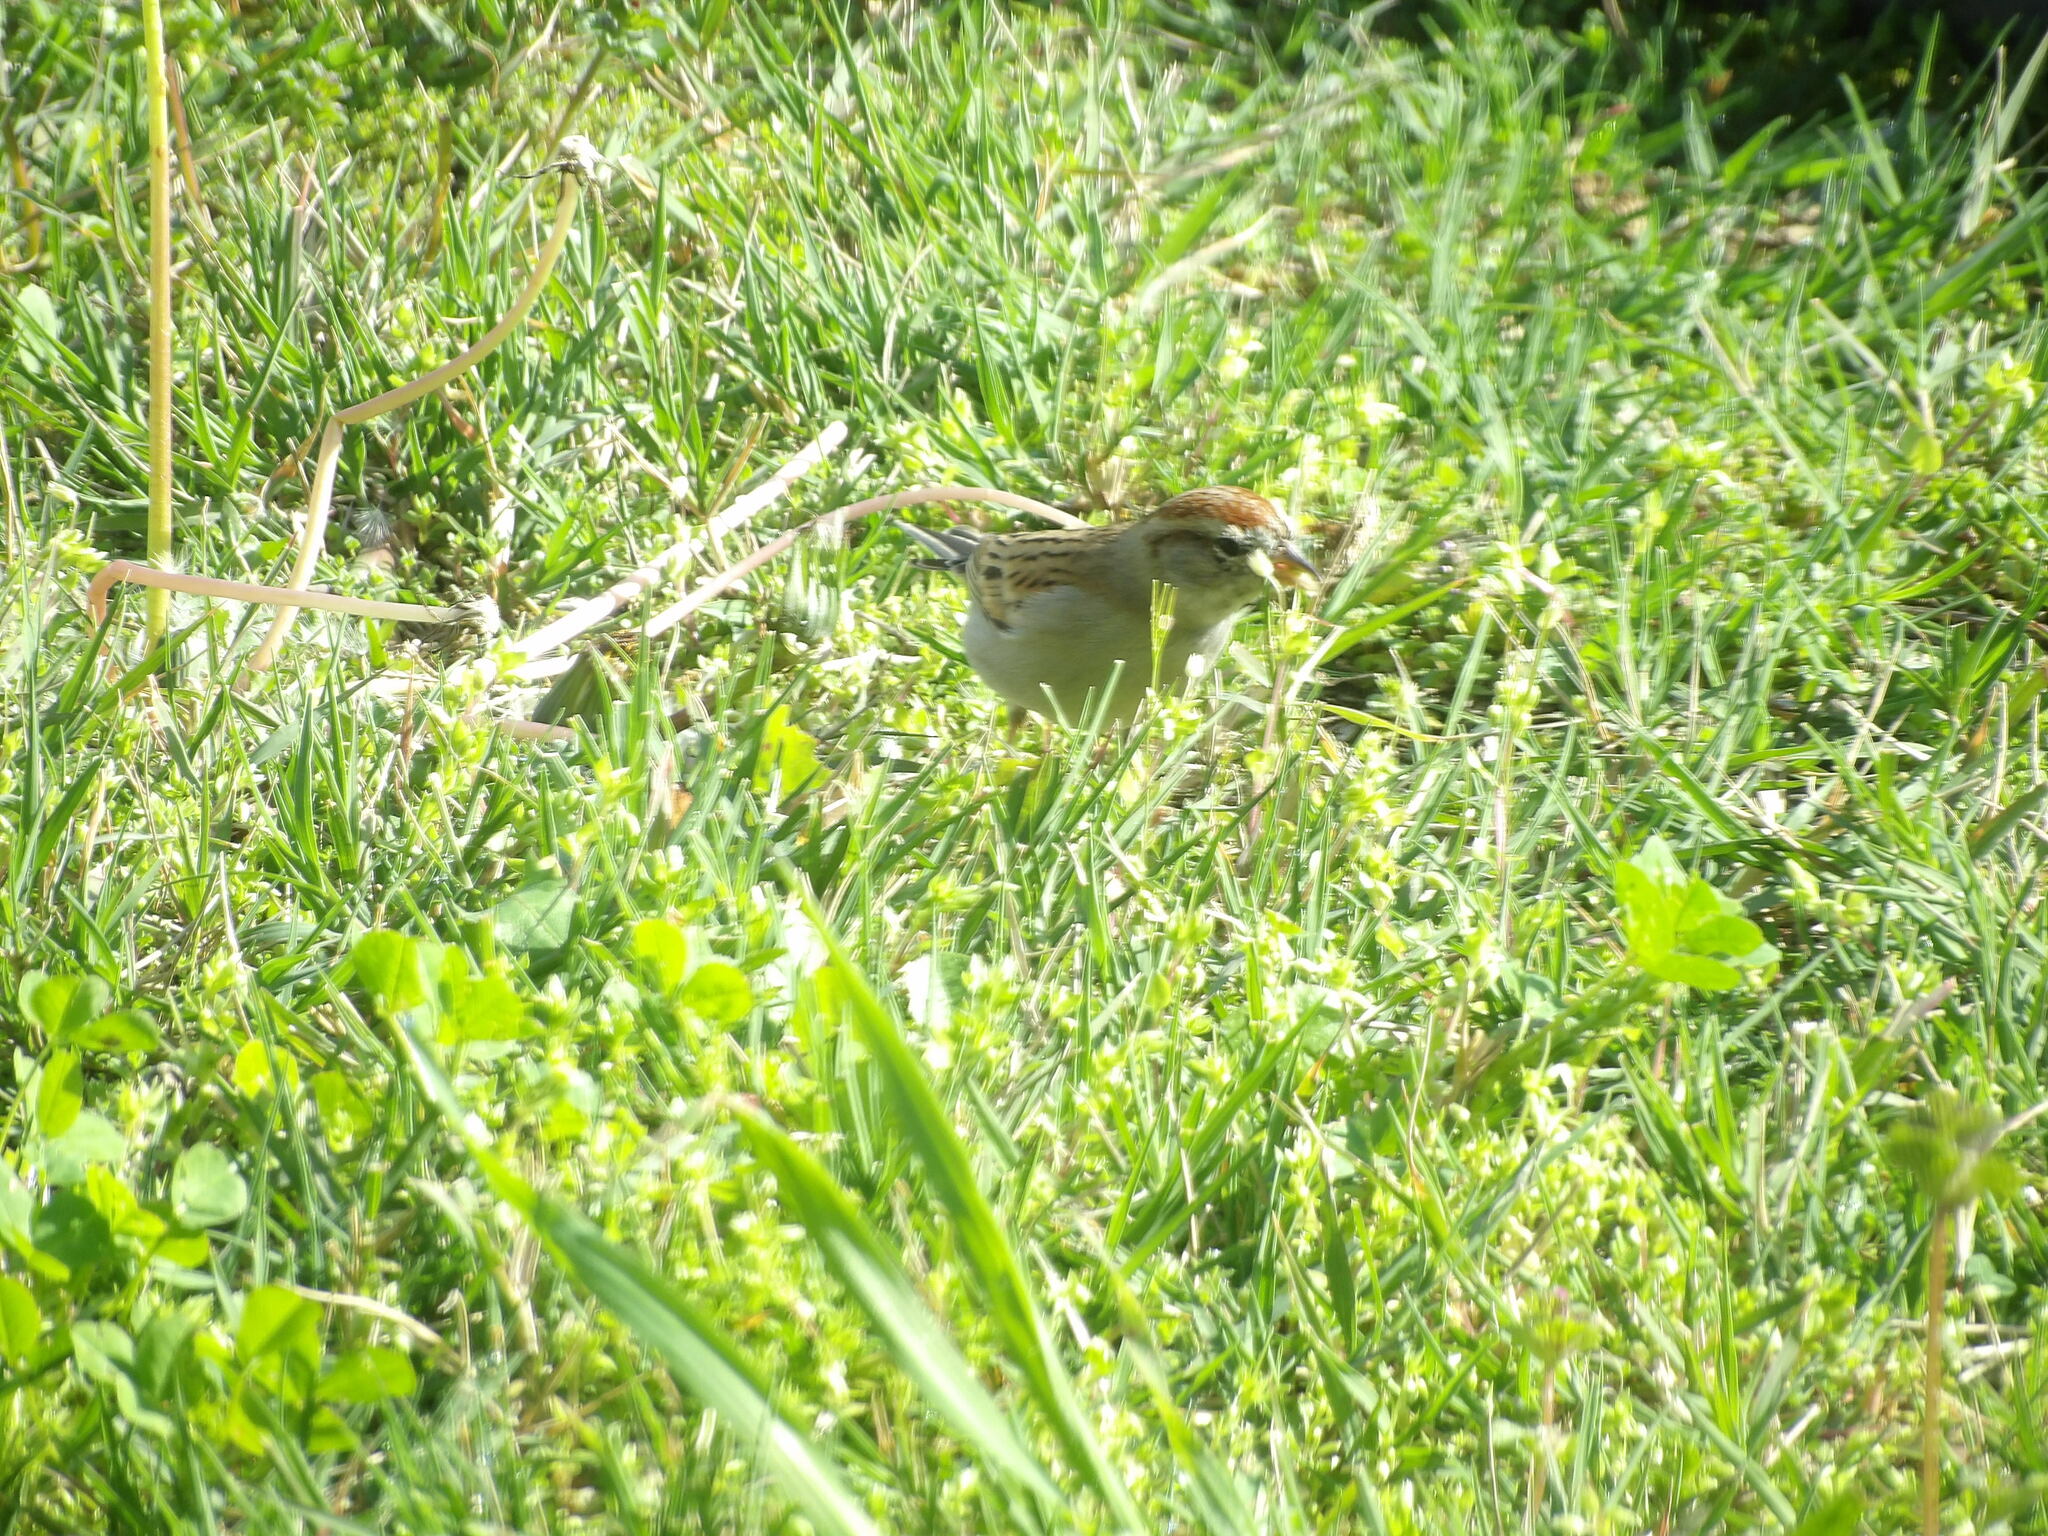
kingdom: Animalia
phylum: Chordata
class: Aves
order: Passeriformes
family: Passerellidae
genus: Spizella
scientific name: Spizella passerina
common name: Chipping sparrow
